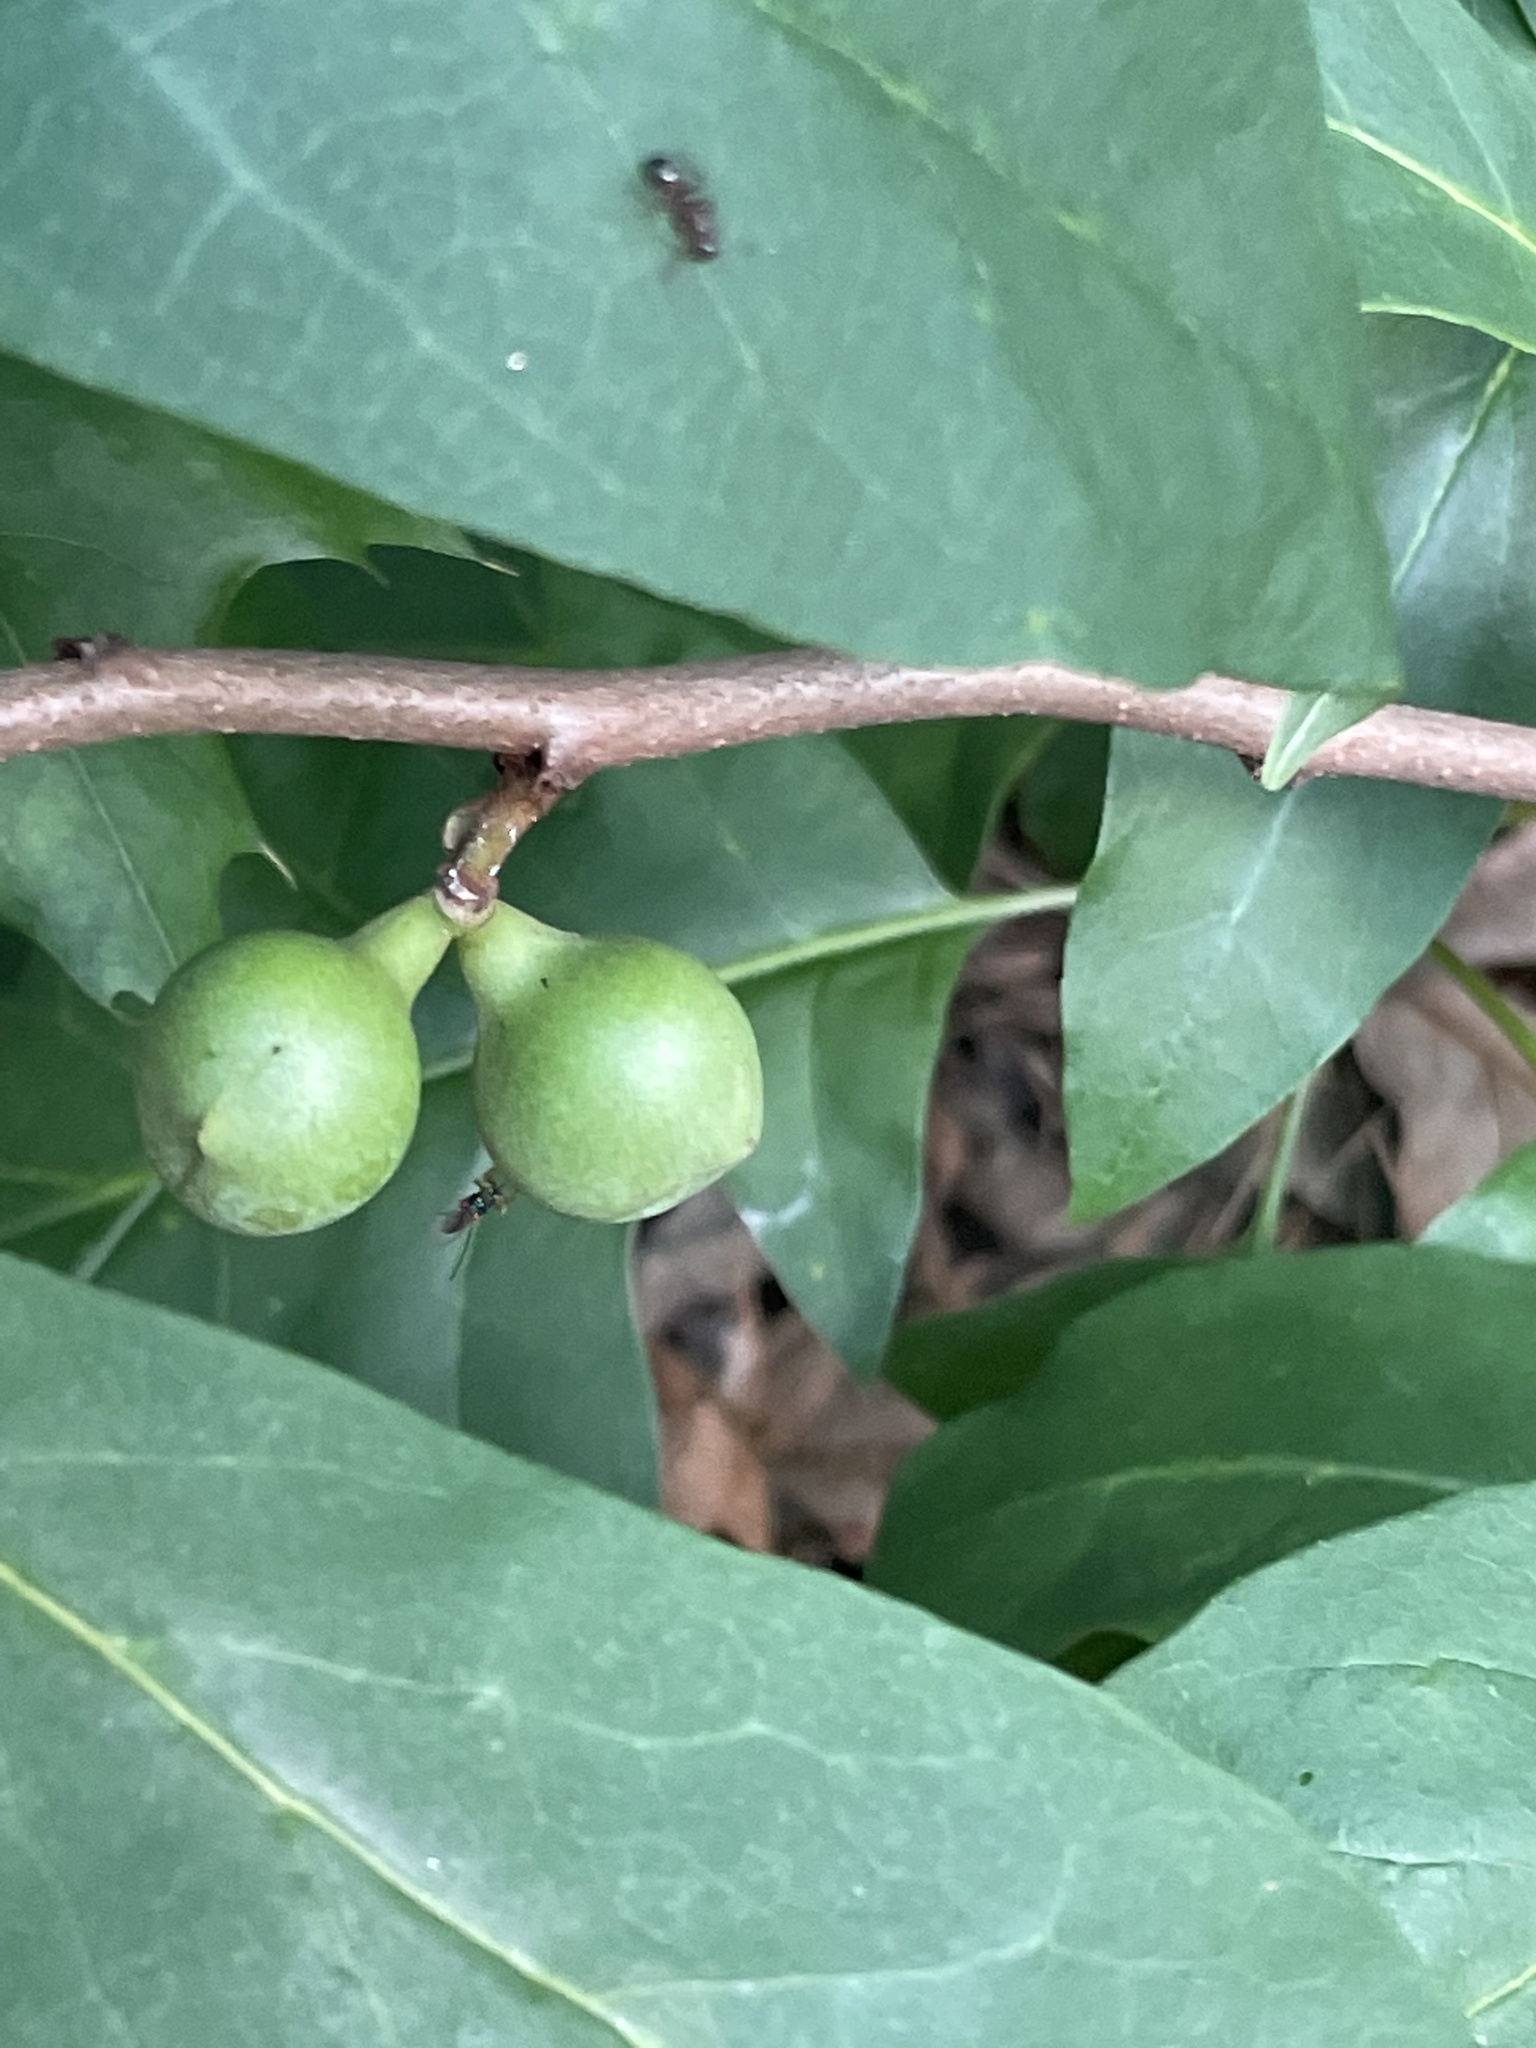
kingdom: Plantae
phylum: Tracheophyta
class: Magnoliopsida
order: Magnoliales
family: Annonaceae
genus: Asimina
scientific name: Asimina parviflora
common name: Dwarf pawpaw
